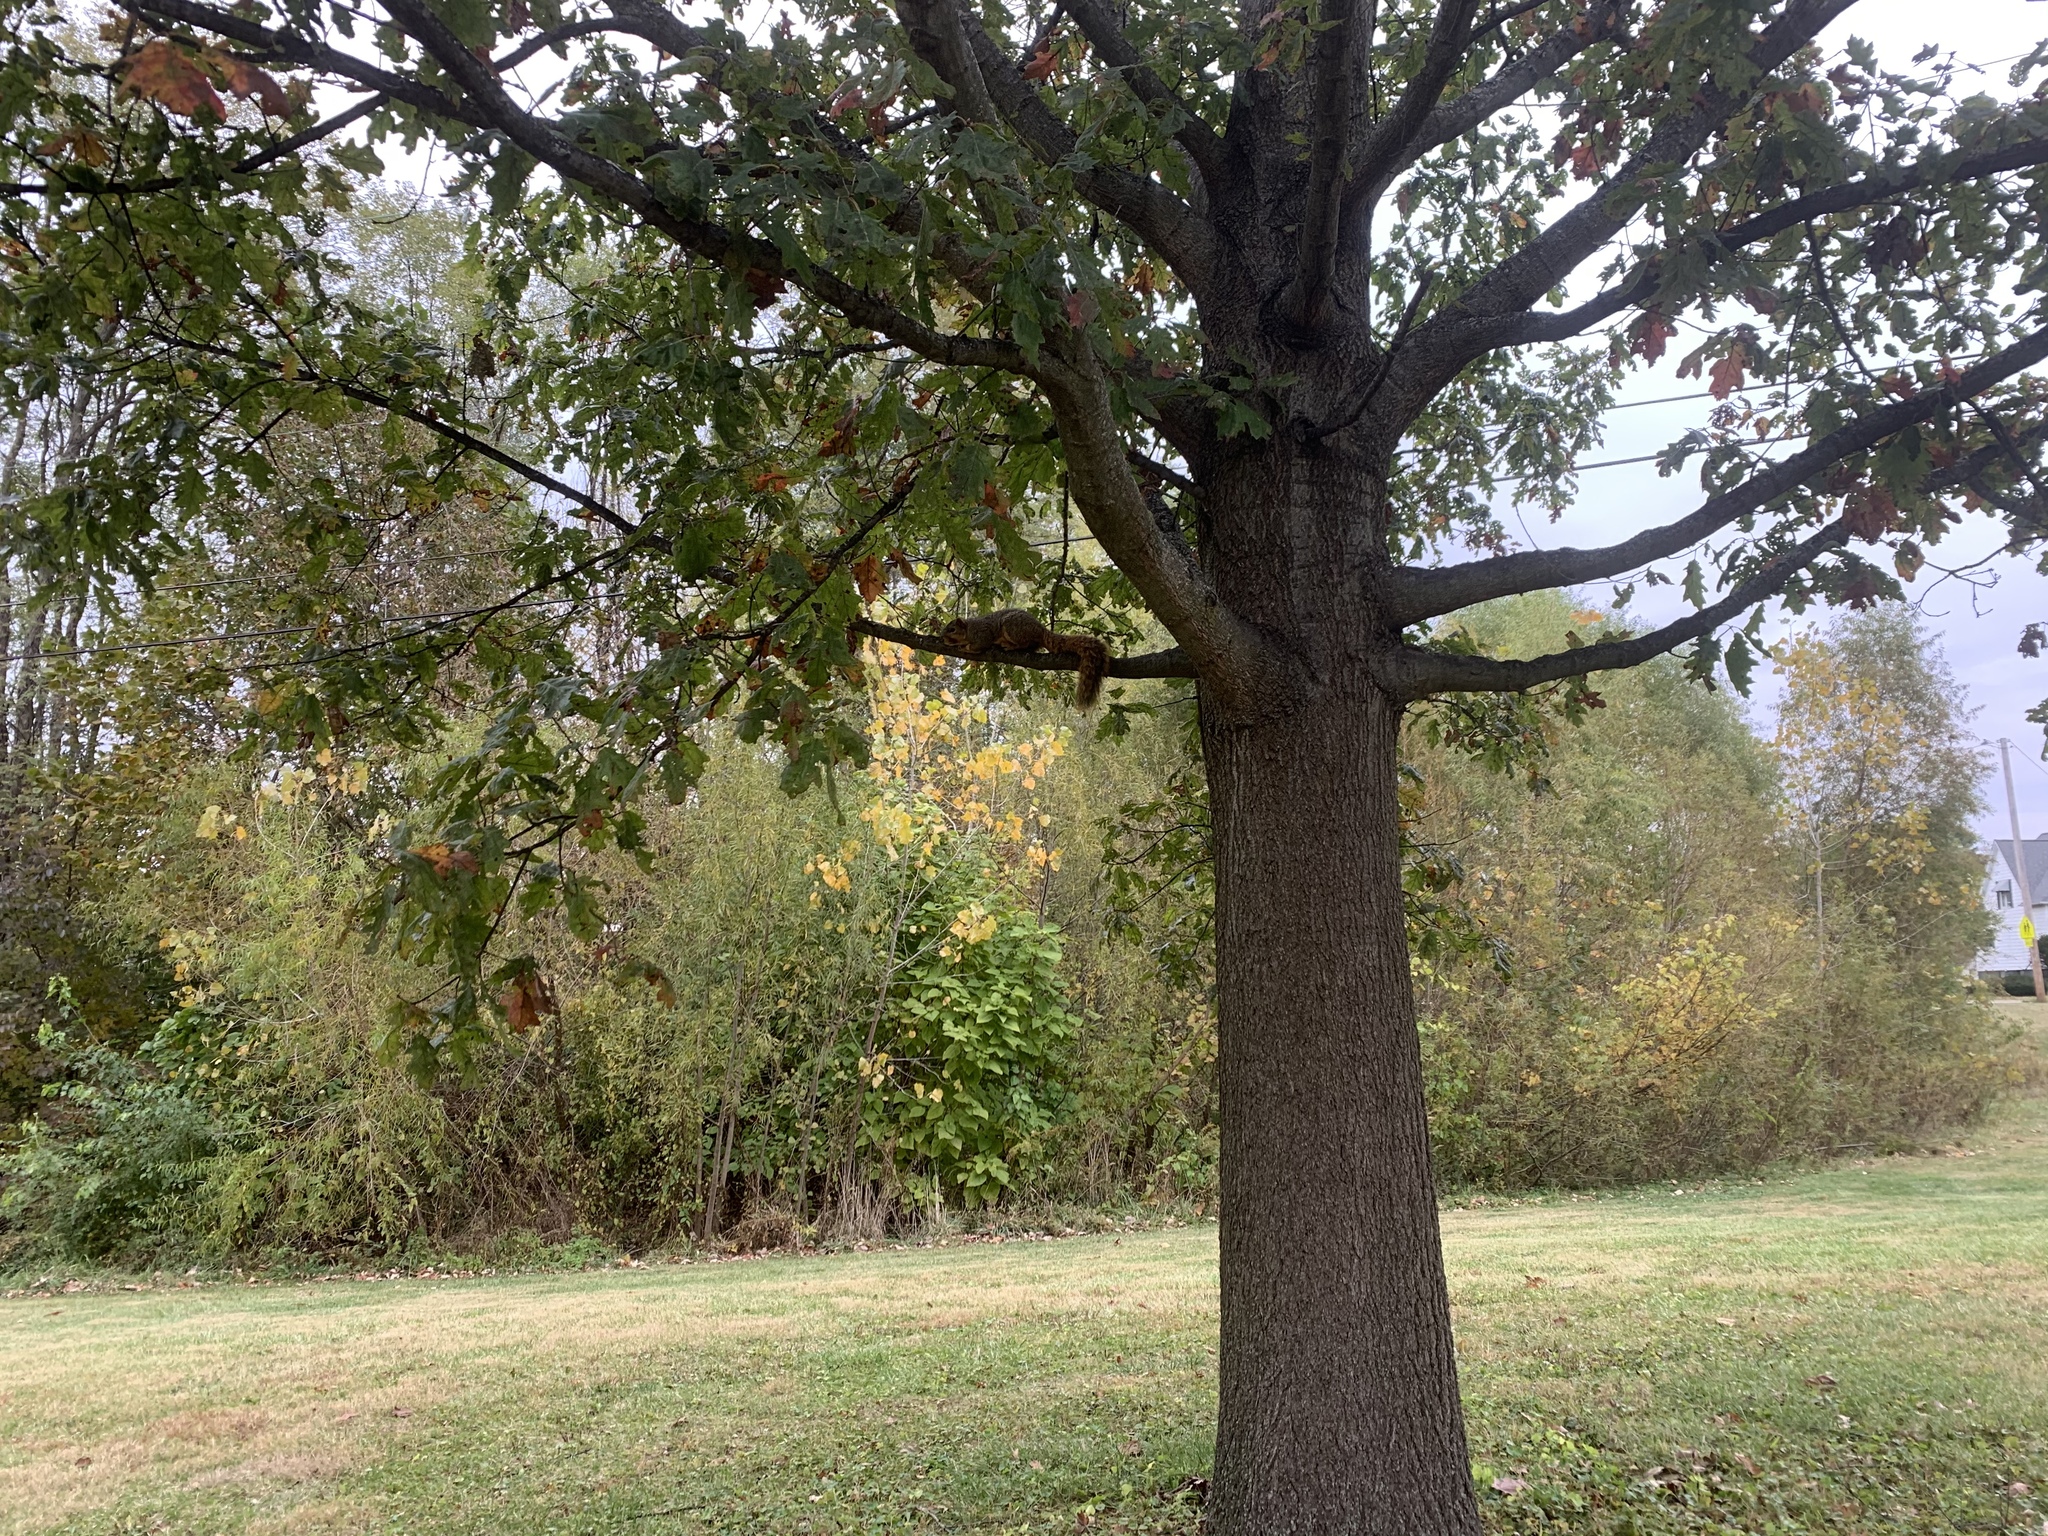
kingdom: Animalia
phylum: Chordata
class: Mammalia
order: Rodentia
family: Sciuridae
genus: Sciurus
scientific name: Sciurus niger
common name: Fox squirrel
